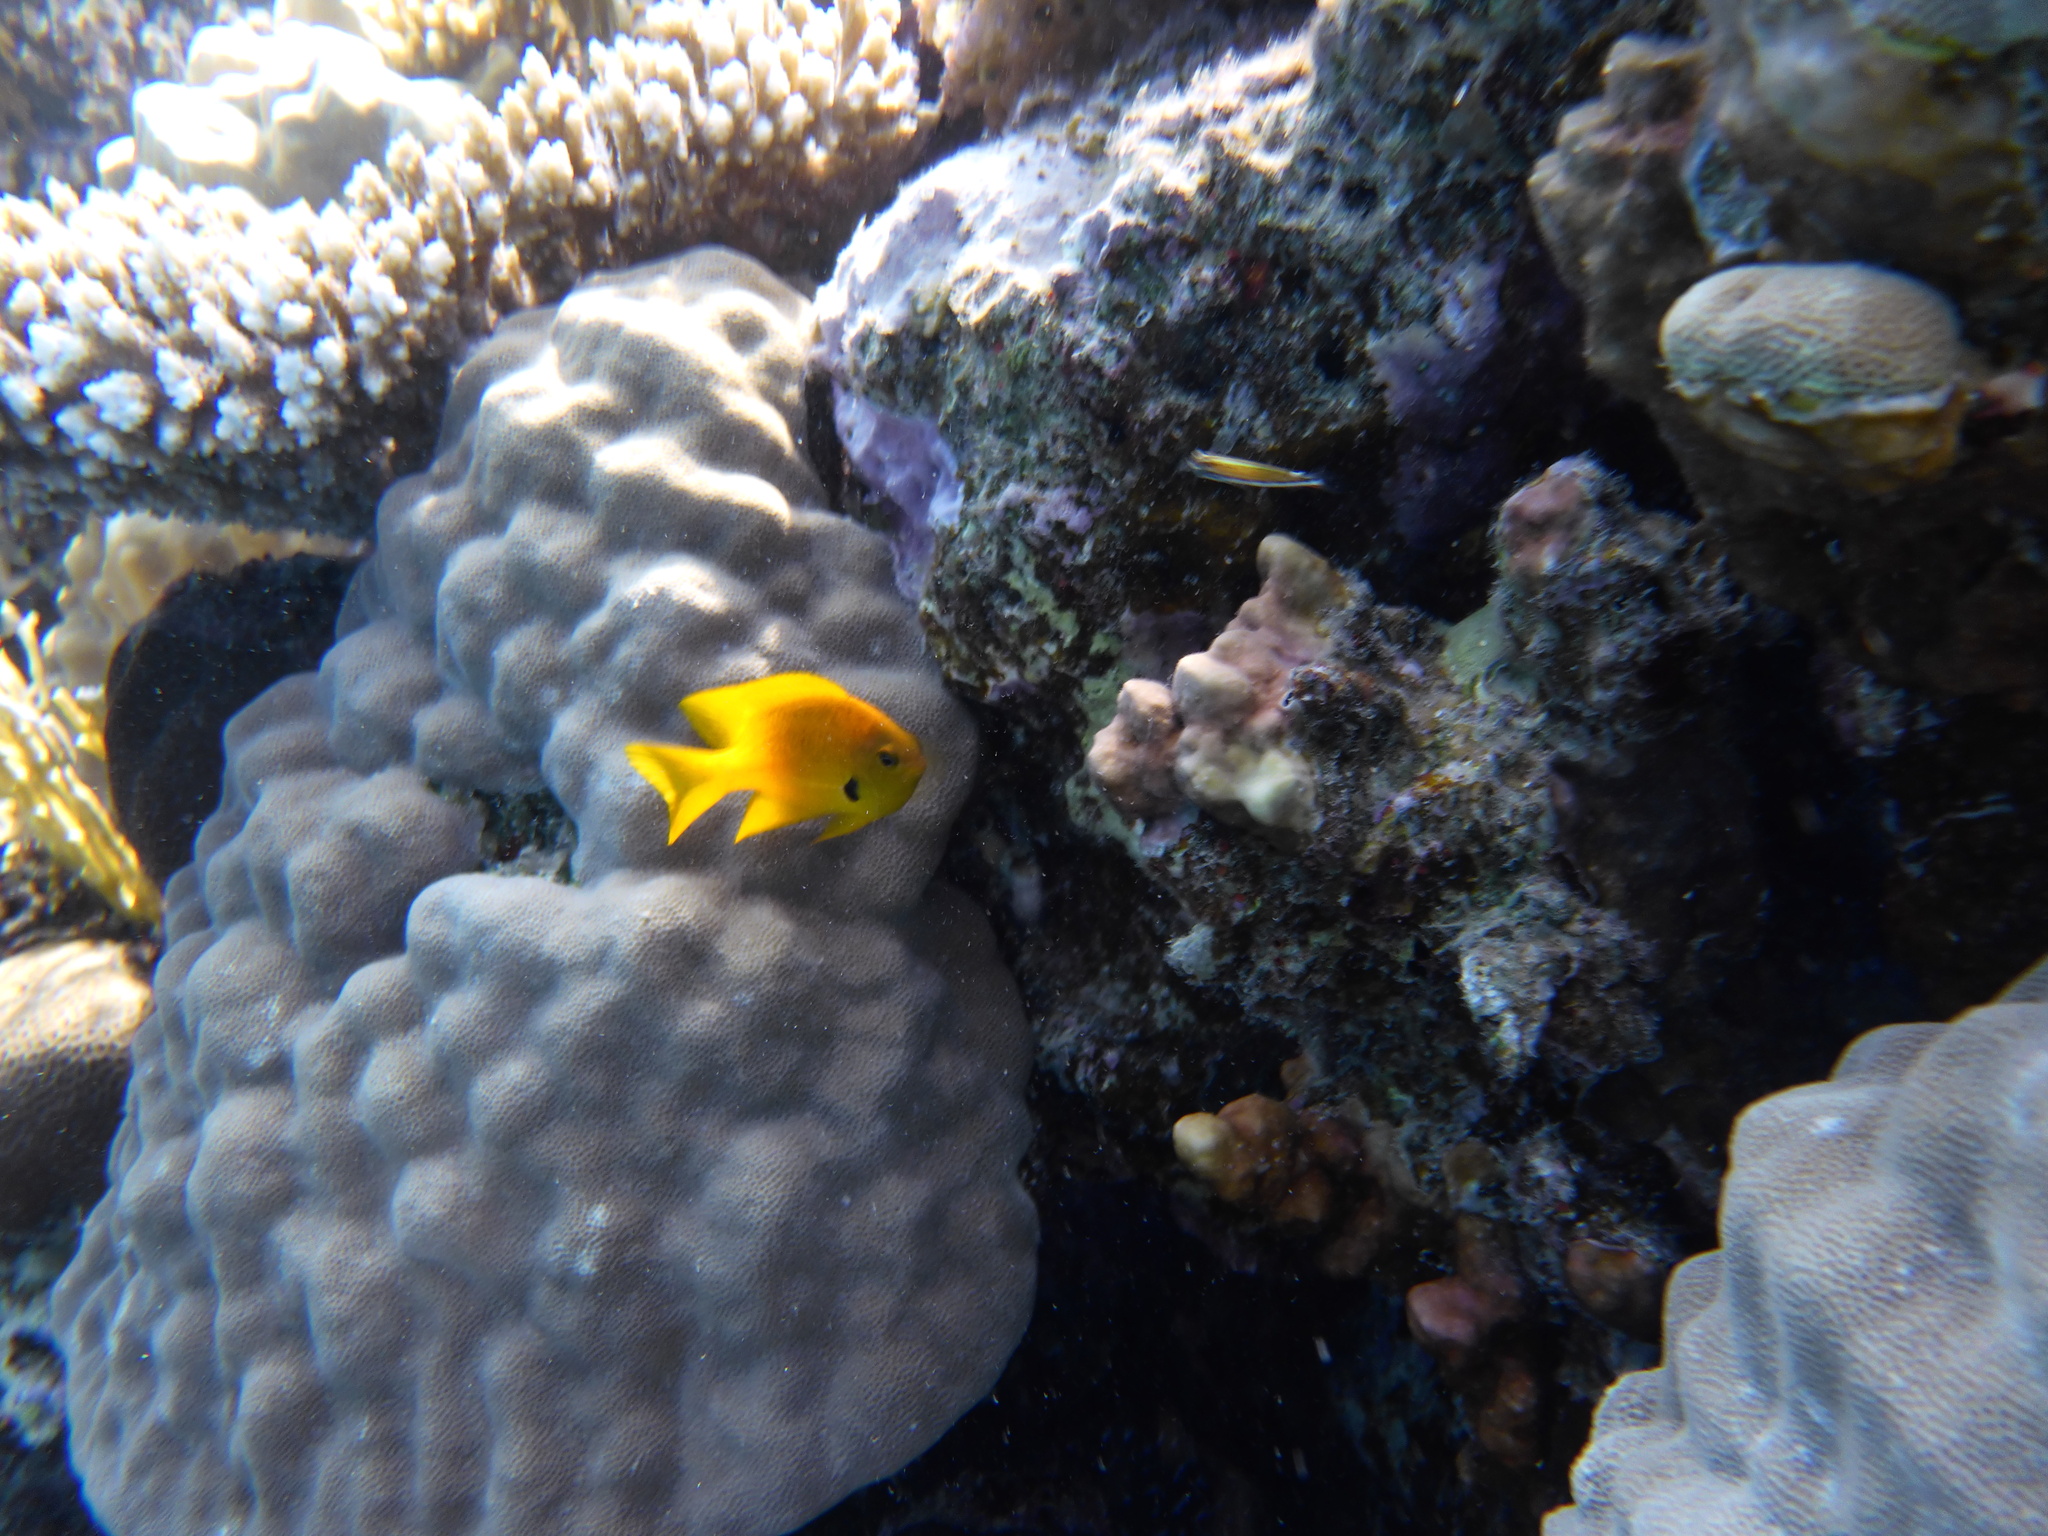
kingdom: Animalia
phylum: Chordata
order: Perciformes
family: Pomacentridae
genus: Pomacentrus
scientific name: Pomacentrus sulfureus
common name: Sulfur damsel
